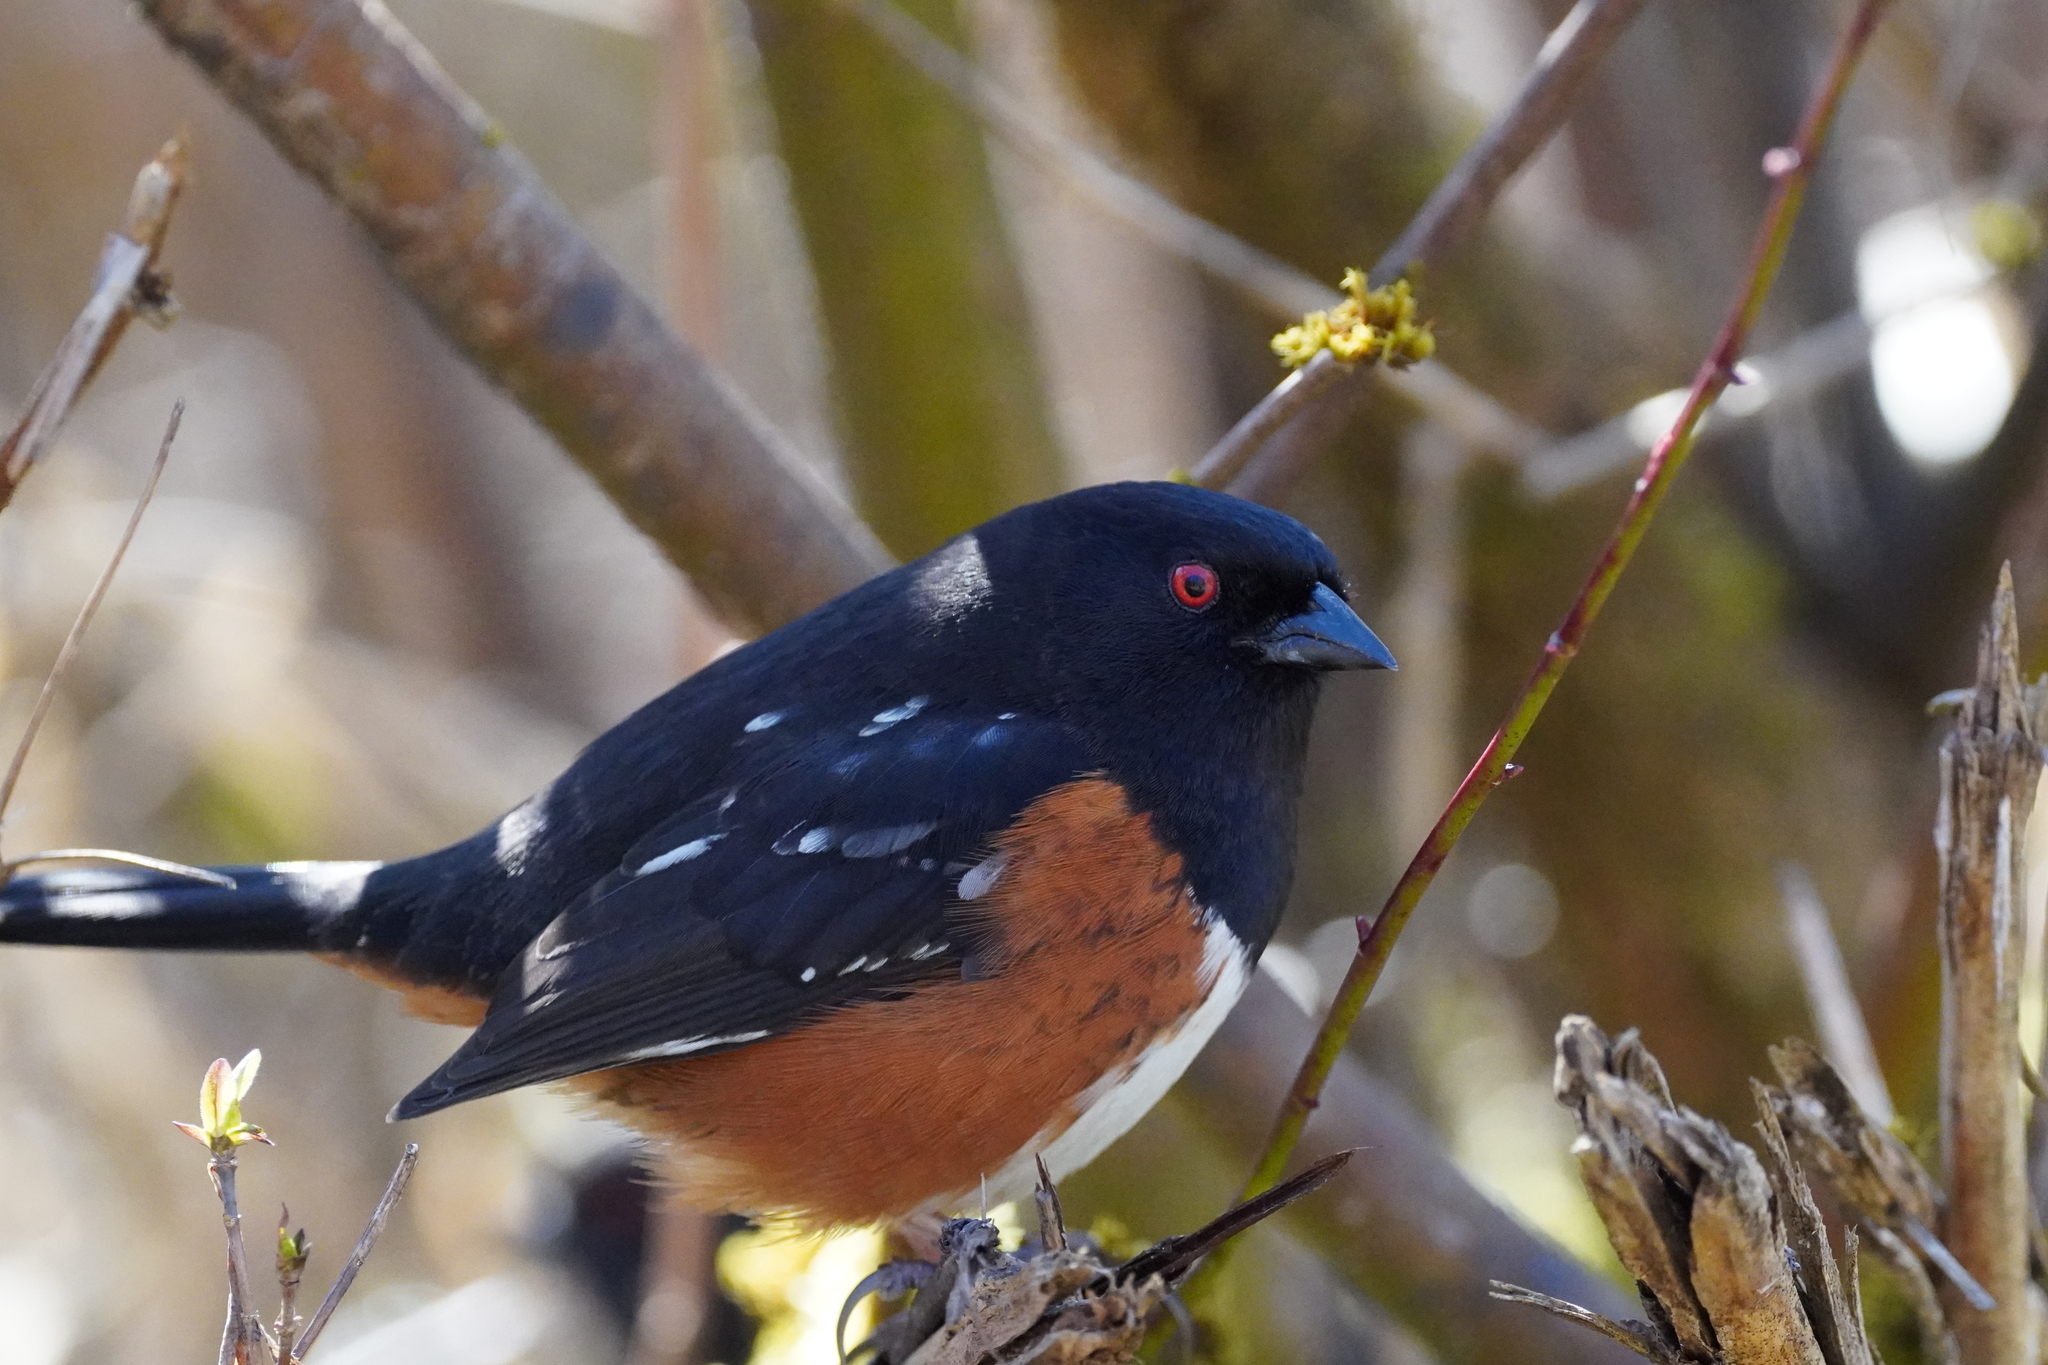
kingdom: Animalia
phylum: Chordata
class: Aves
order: Passeriformes
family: Passerellidae
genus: Pipilo
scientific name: Pipilo maculatus
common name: Spotted towhee
